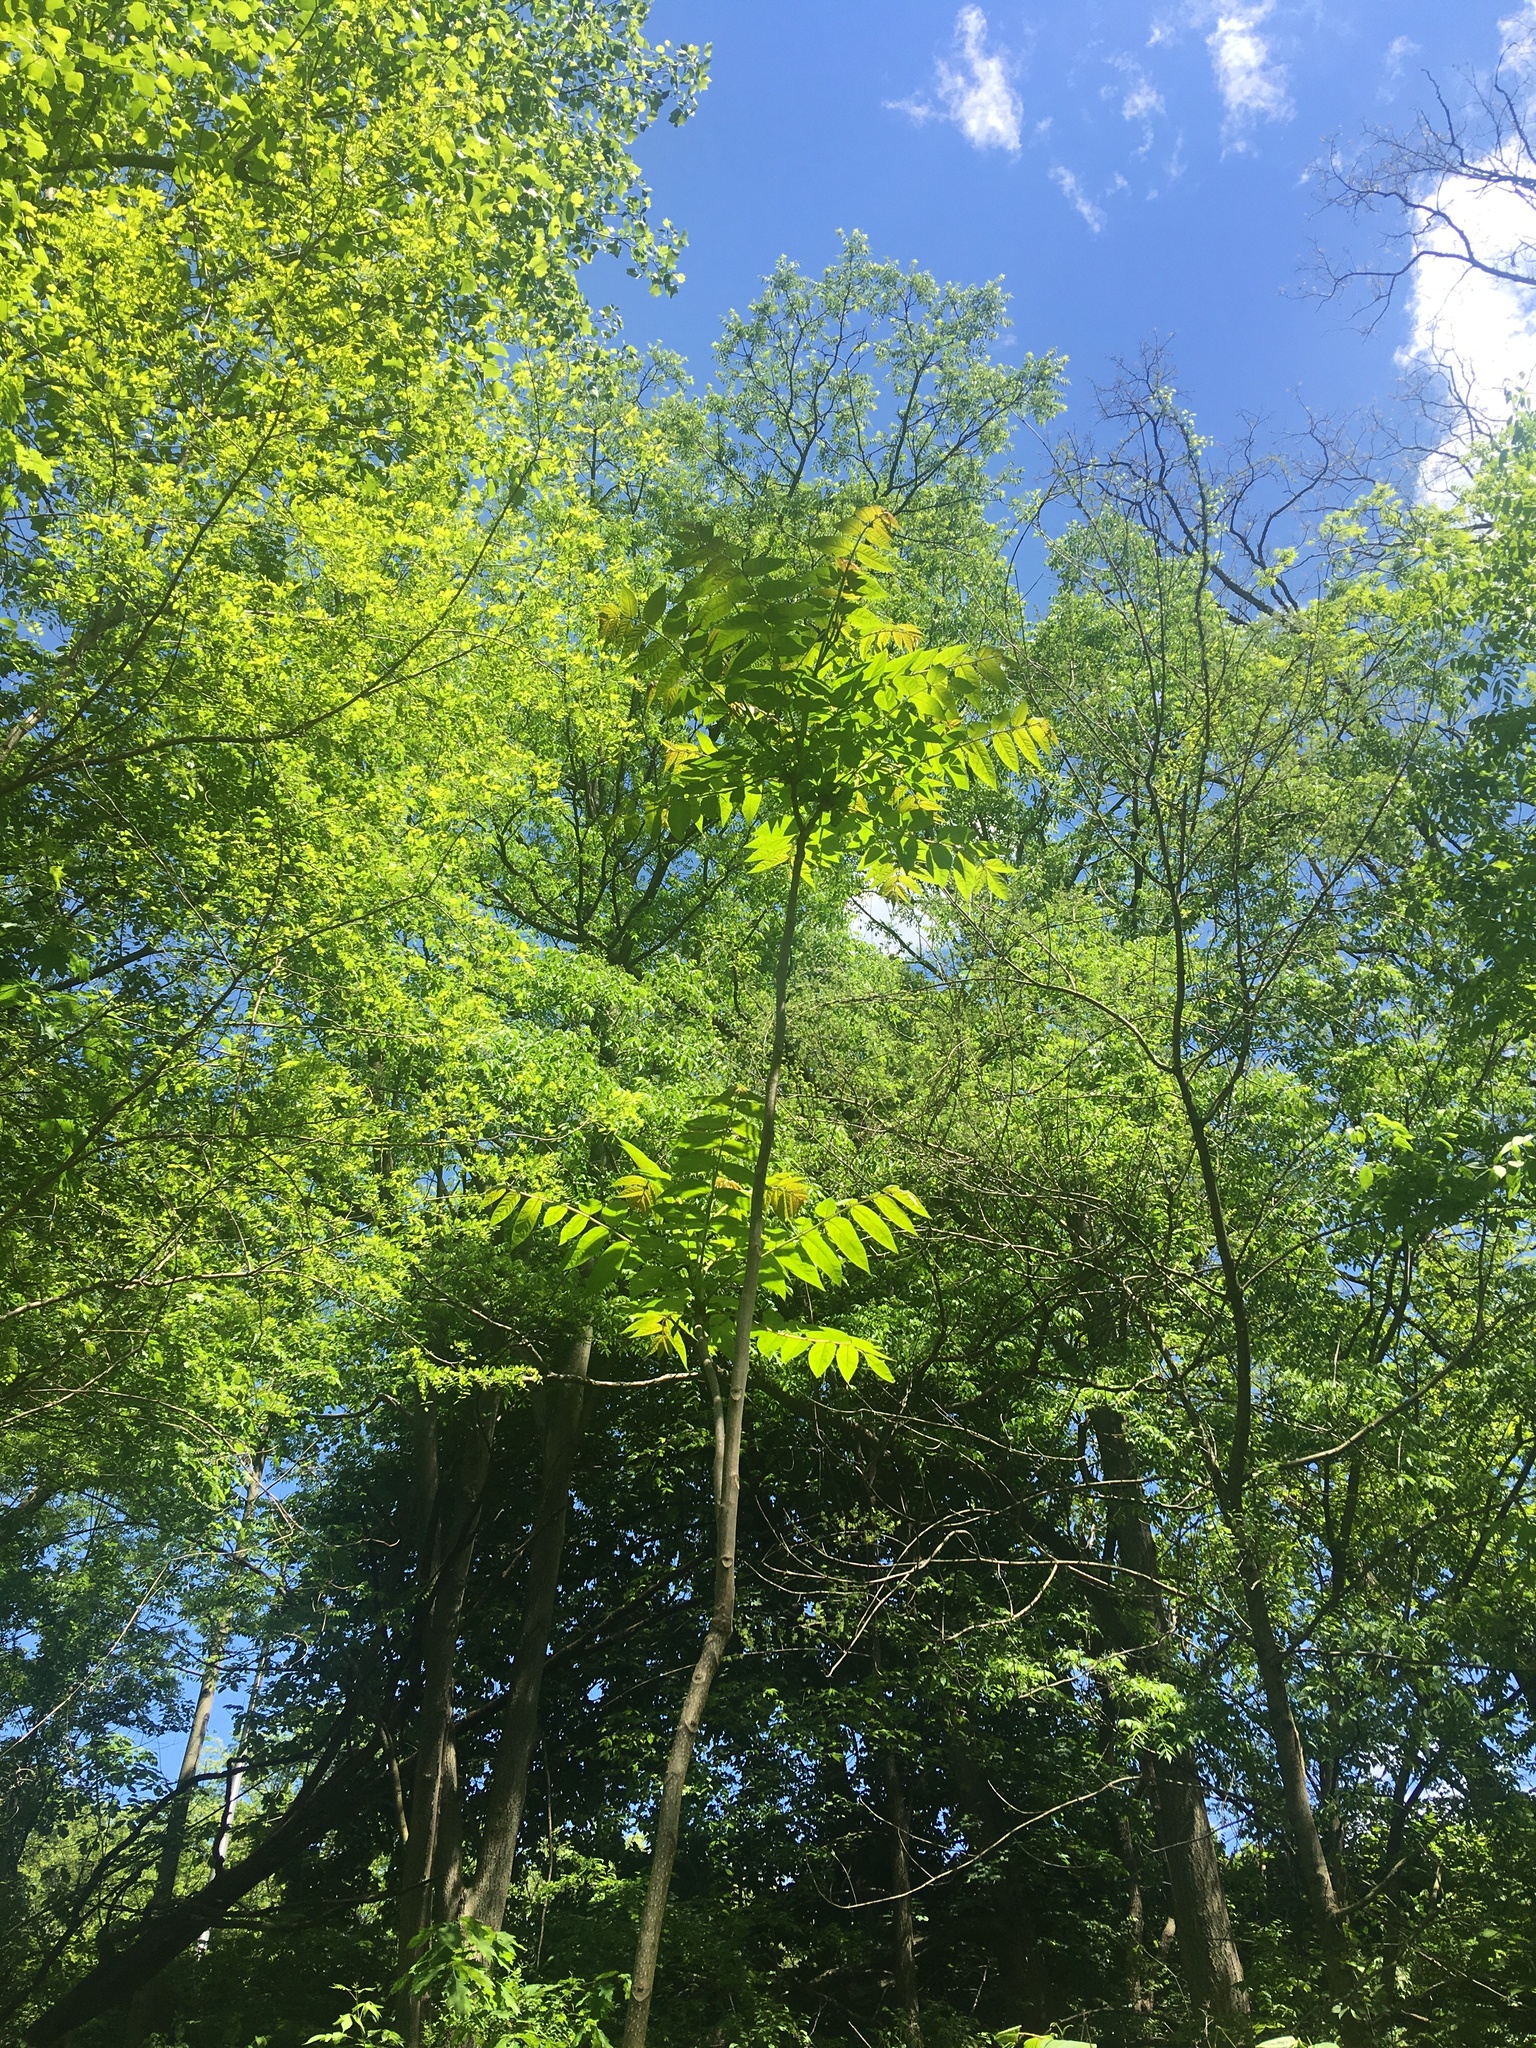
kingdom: Plantae
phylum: Tracheophyta
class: Magnoliopsida
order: Sapindales
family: Meliaceae
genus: Toona
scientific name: Toona sinensis
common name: Red toon
